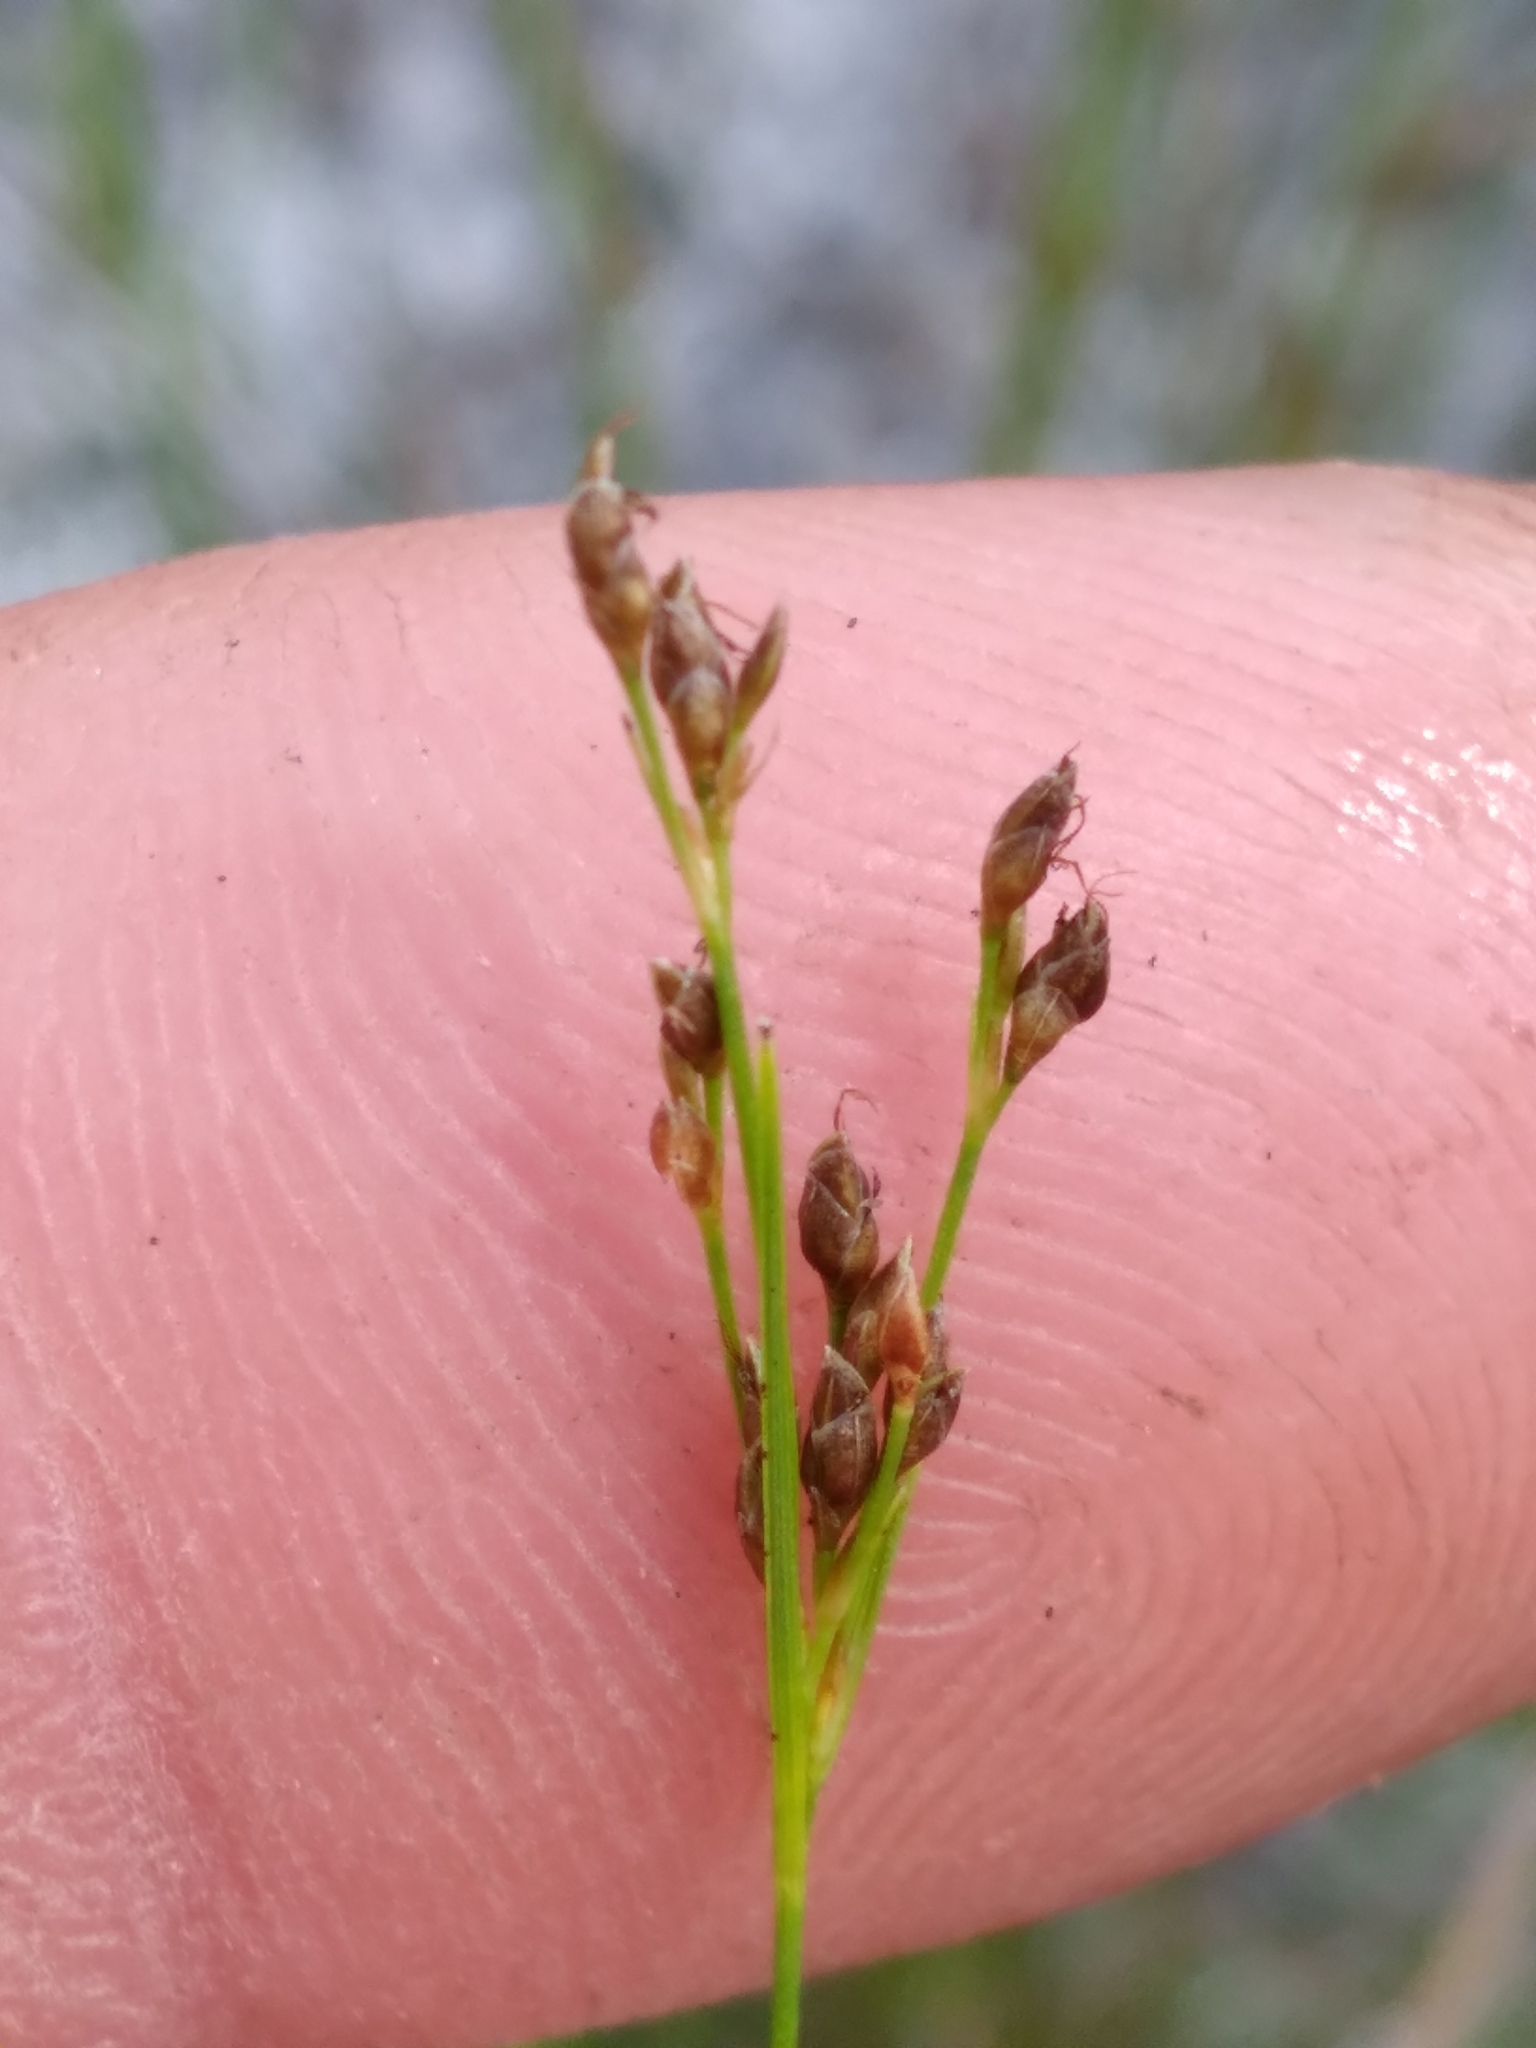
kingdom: Plantae
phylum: Tracheophyta
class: Liliopsida
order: Poales
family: Cyperaceae
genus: Rhynchospora
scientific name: Rhynchospora pusilla
